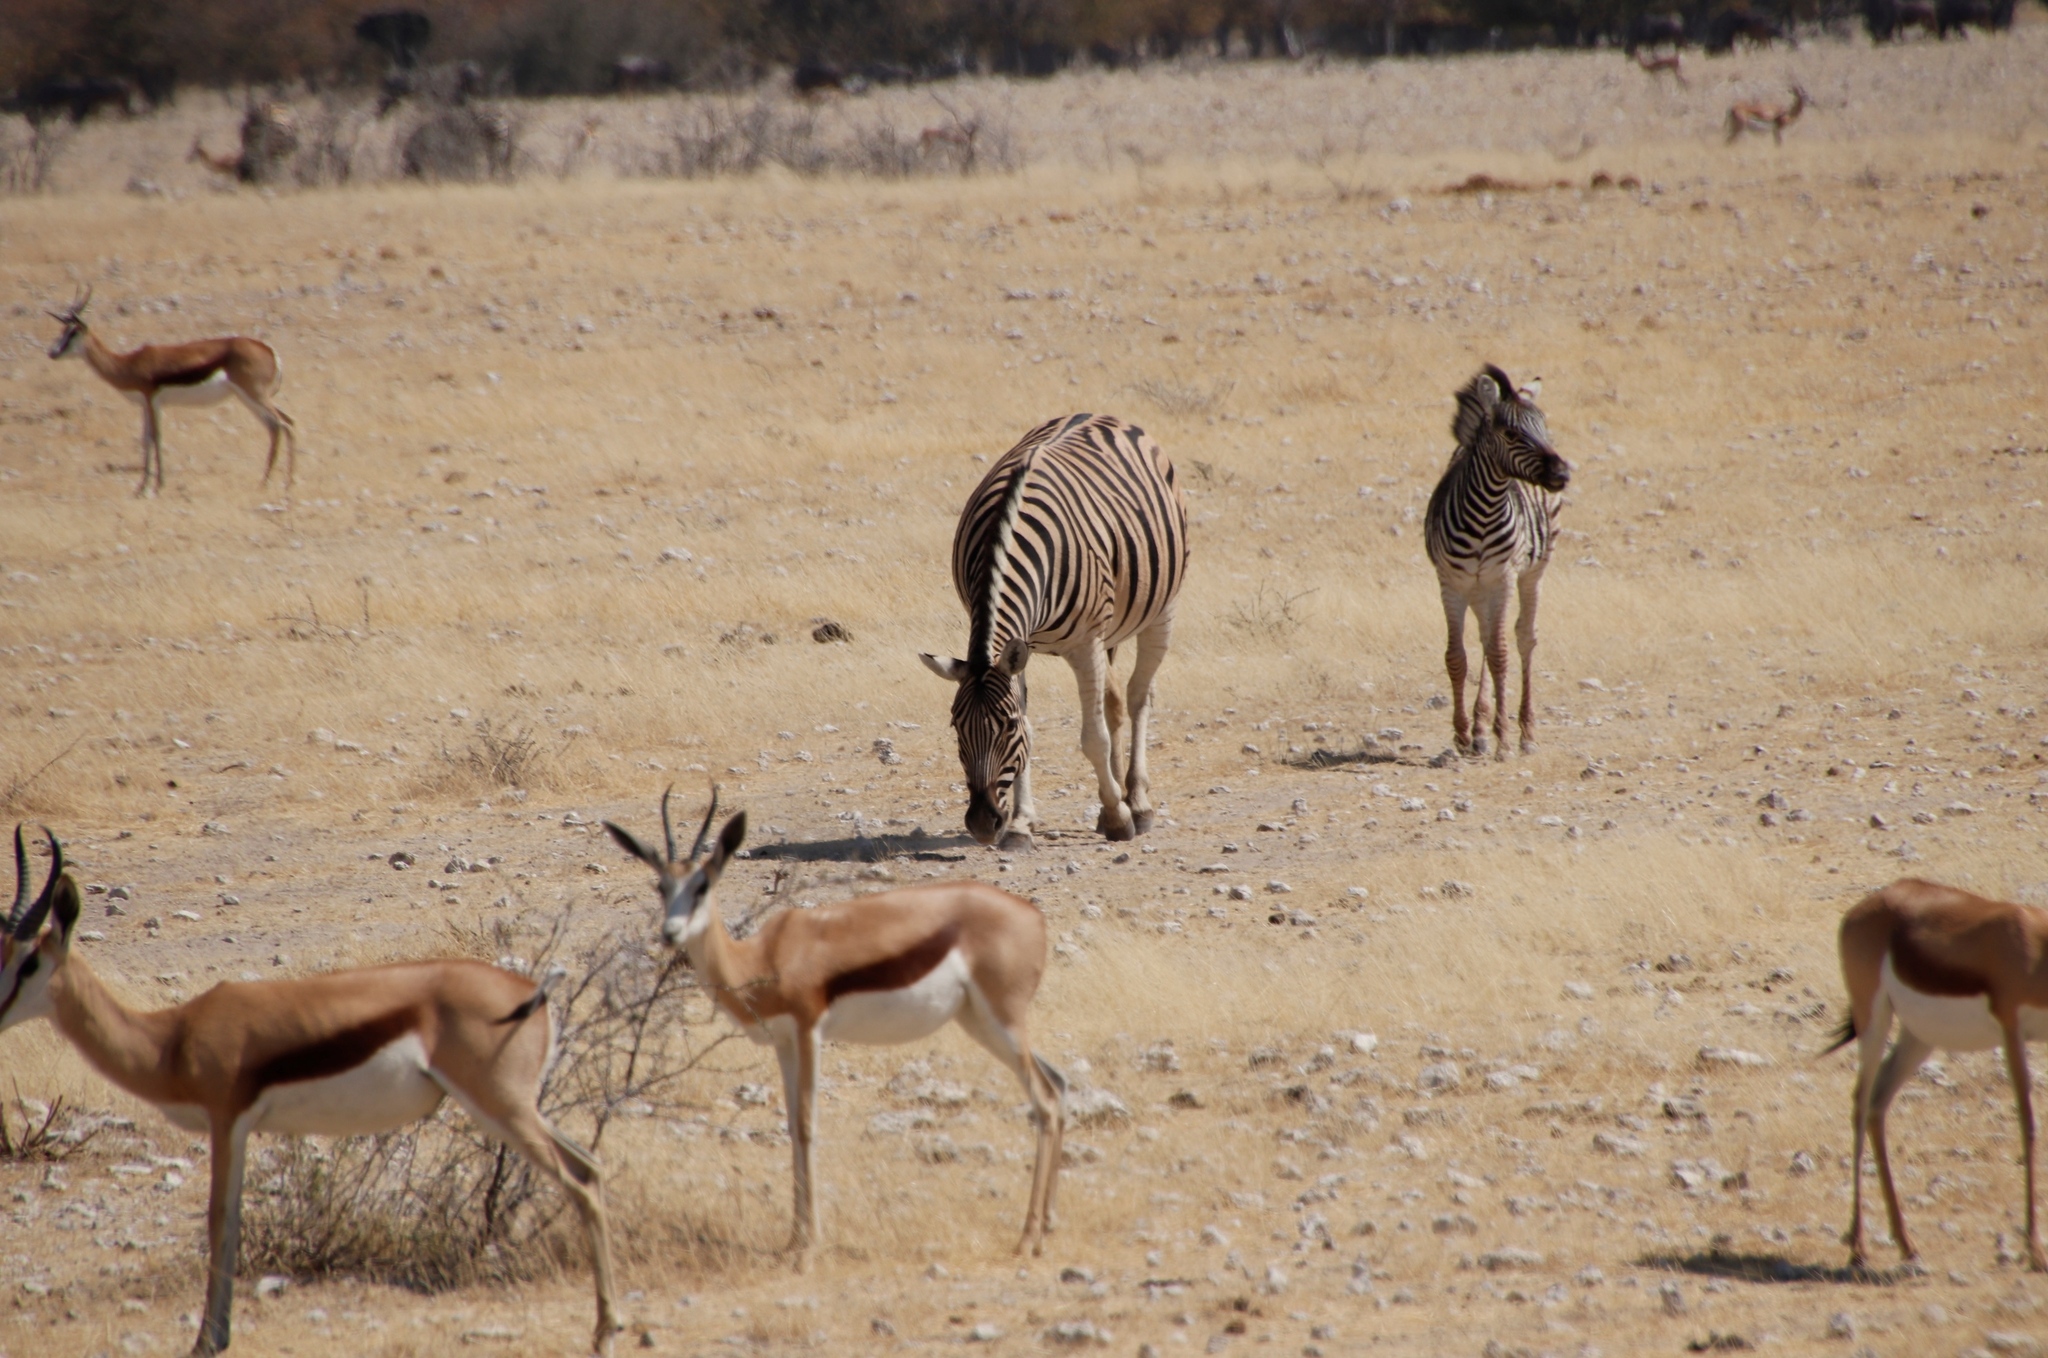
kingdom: Animalia
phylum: Chordata
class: Mammalia
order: Artiodactyla
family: Bovidae
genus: Antidorcas
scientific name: Antidorcas marsupialis
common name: Springbok
